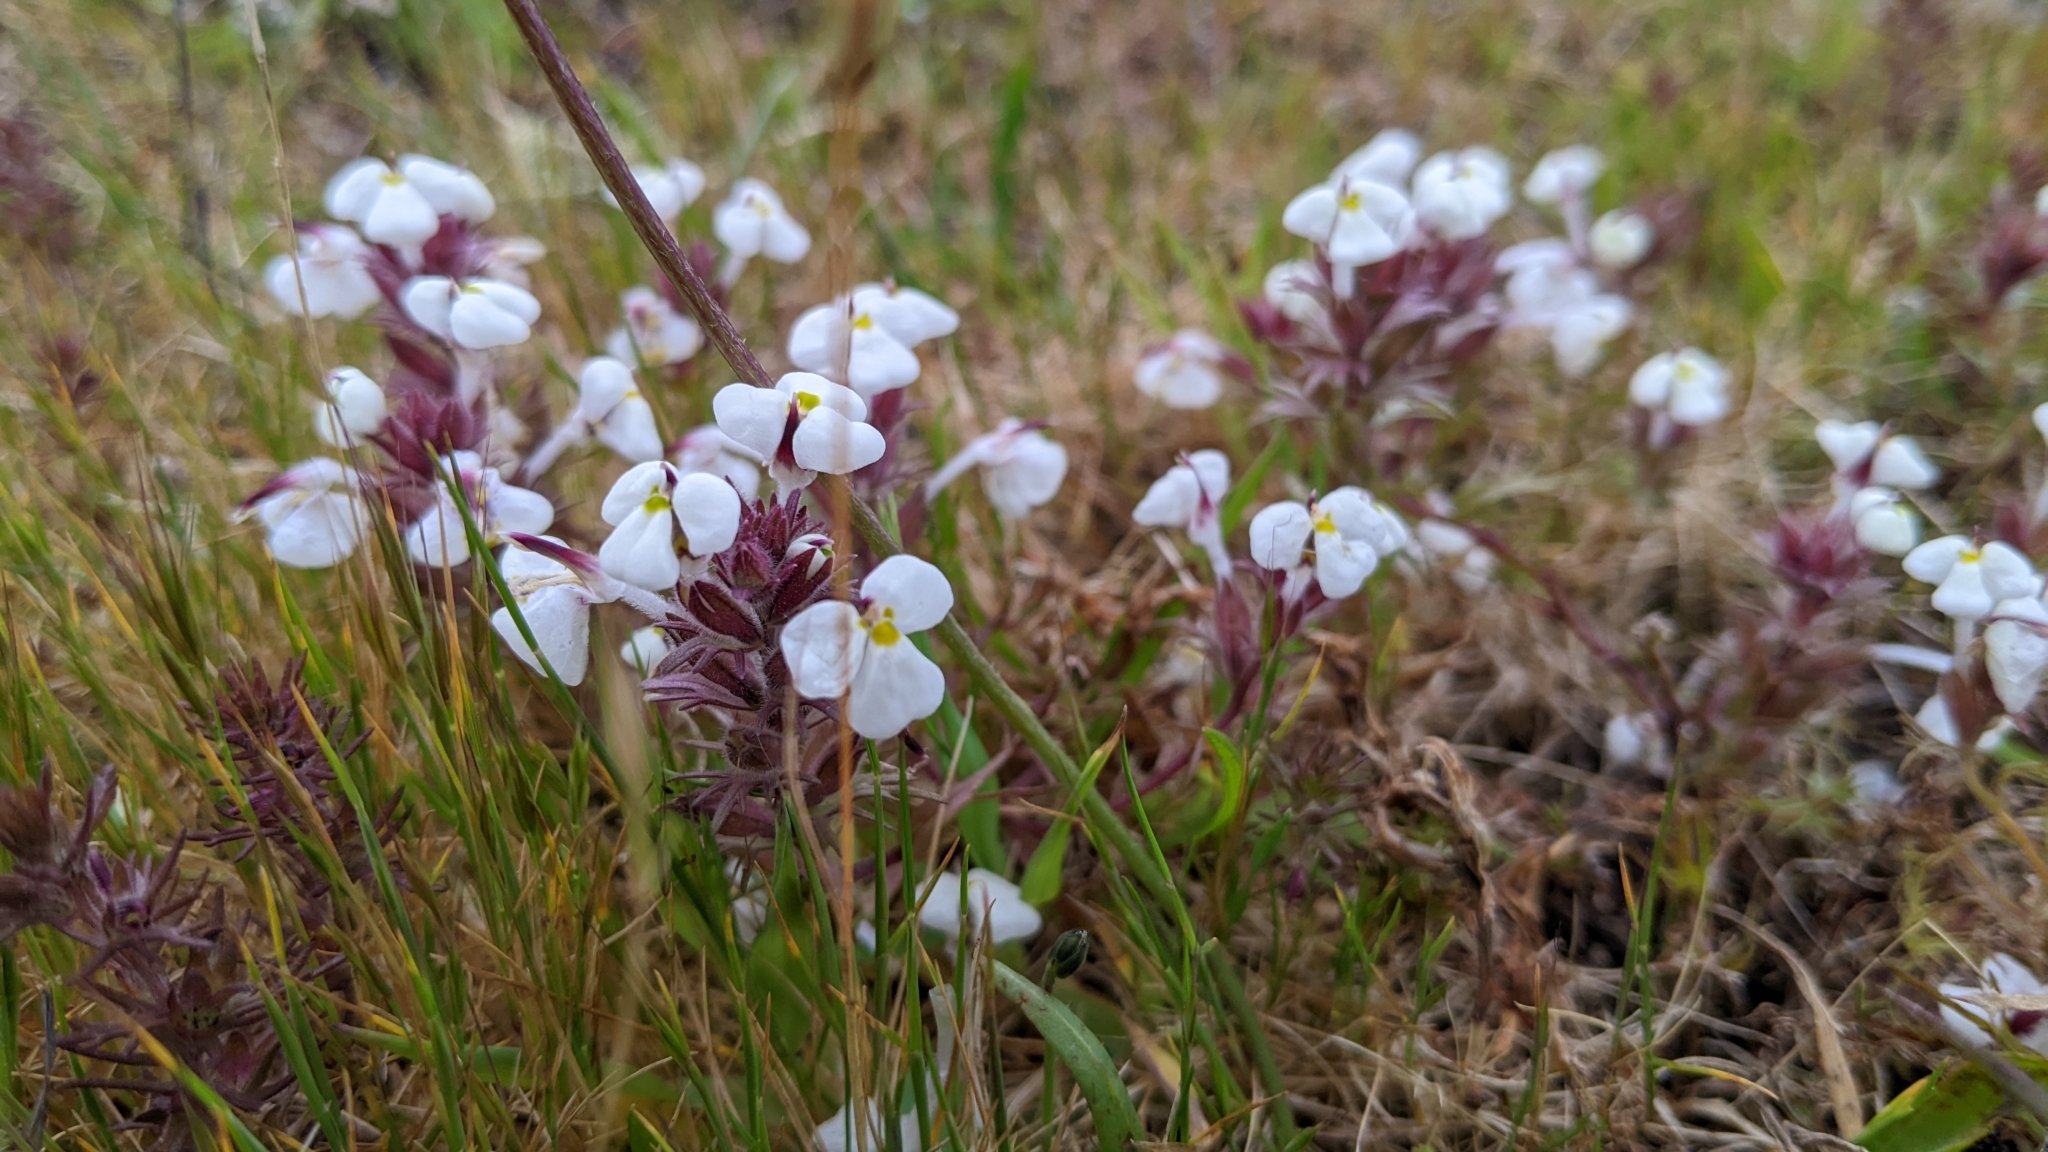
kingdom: Plantae
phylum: Tracheophyta
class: Magnoliopsida
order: Lamiales
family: Orobanchaceae
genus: Triphysaria
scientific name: Triphysaria eriantha
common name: Johnny-tuck
